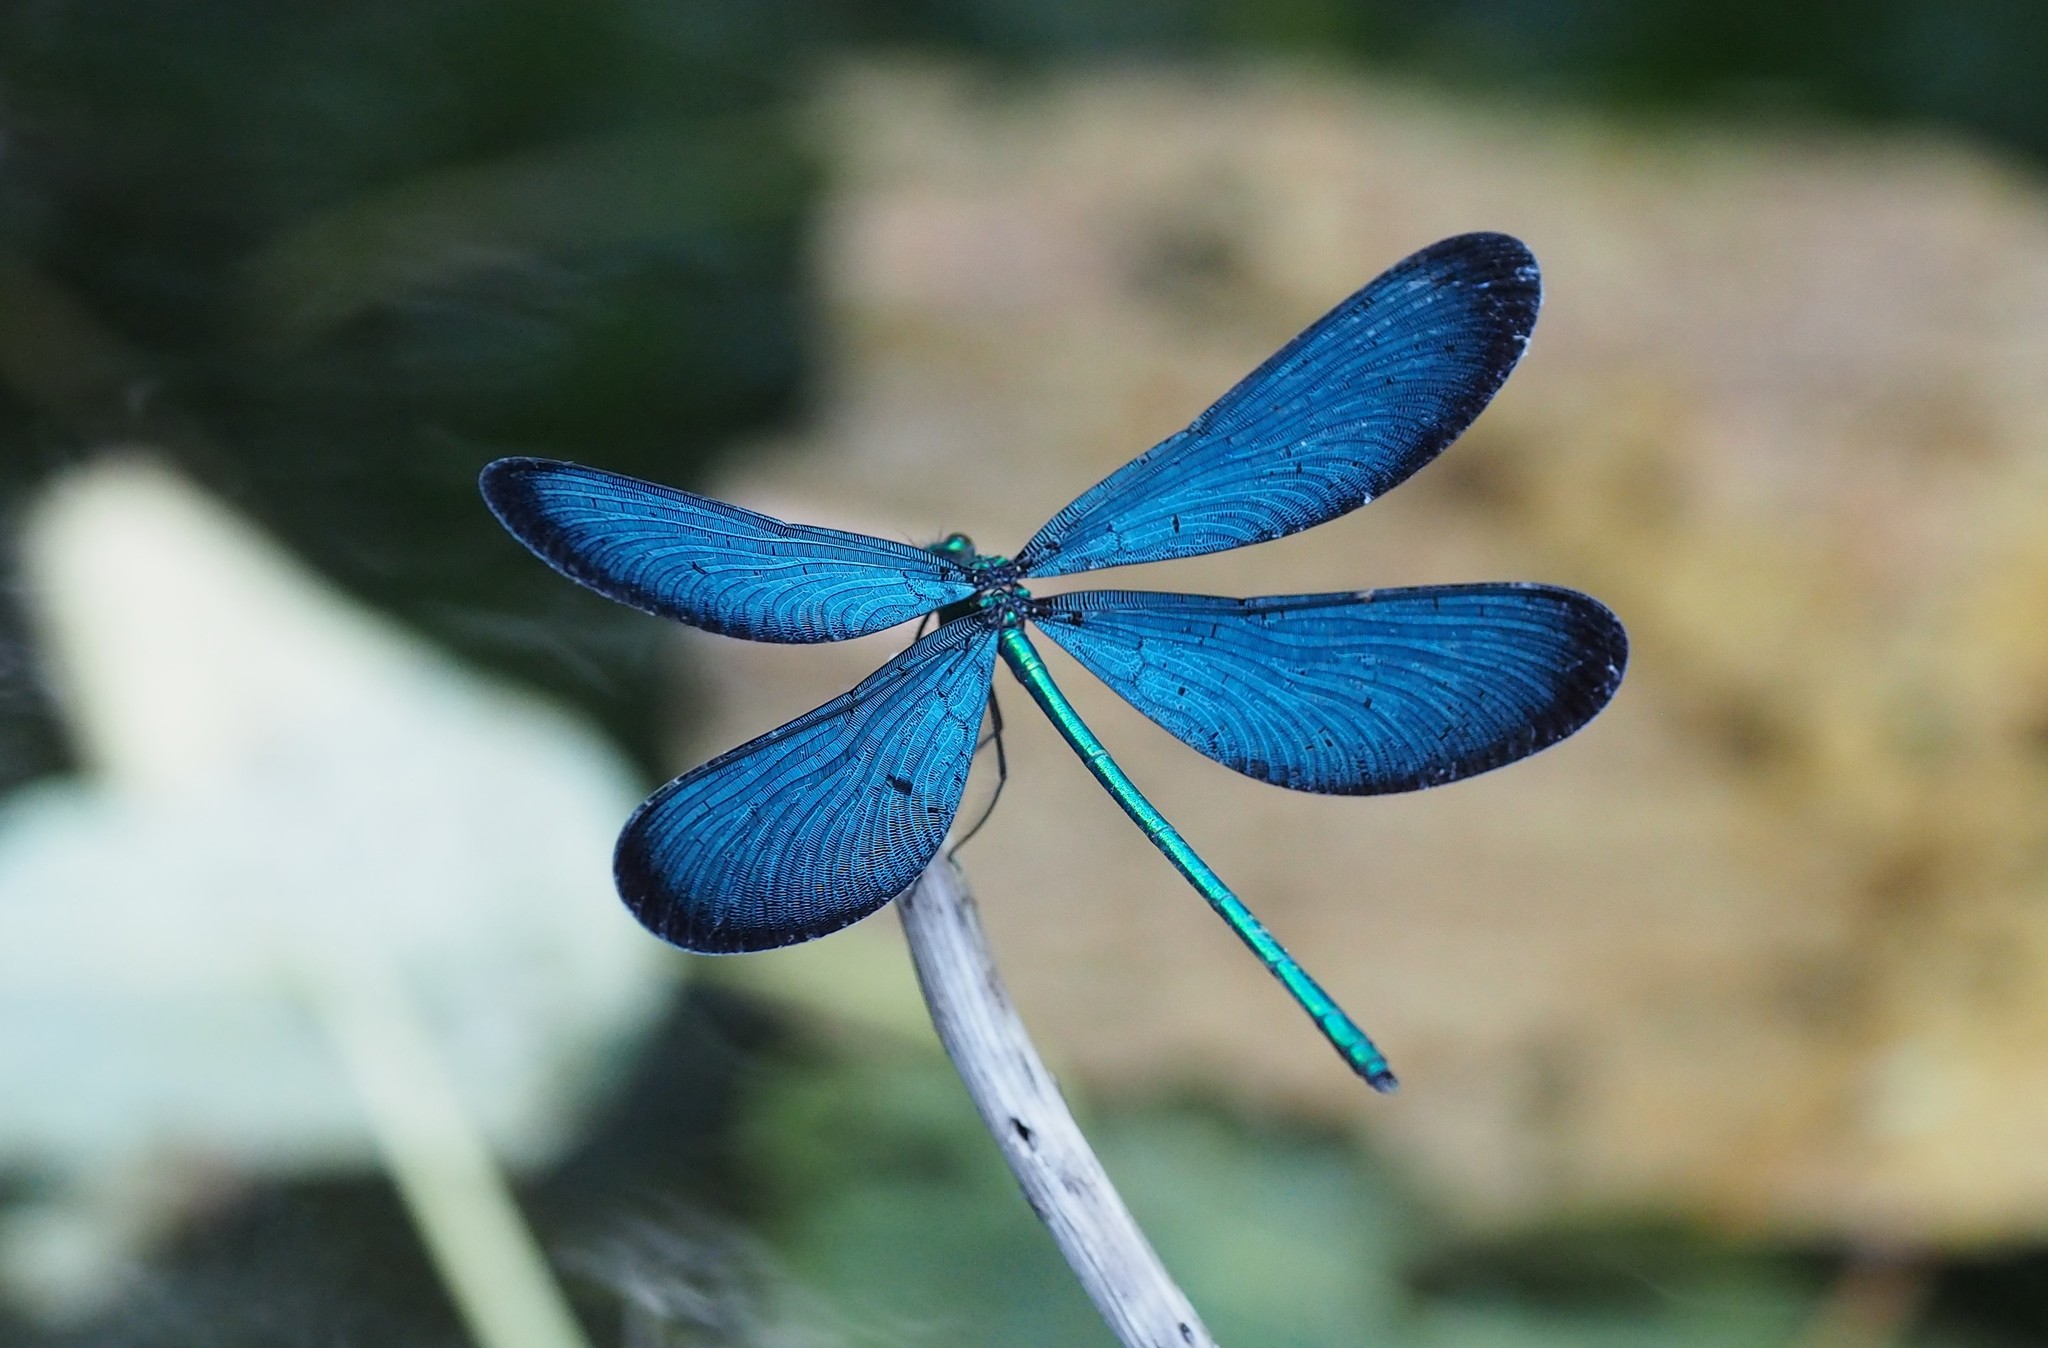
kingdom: Animalia
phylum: Arthropoda
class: Insecta
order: Odonata
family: Calopterygidae
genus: Matrona
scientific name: Matrona cyanoptera
